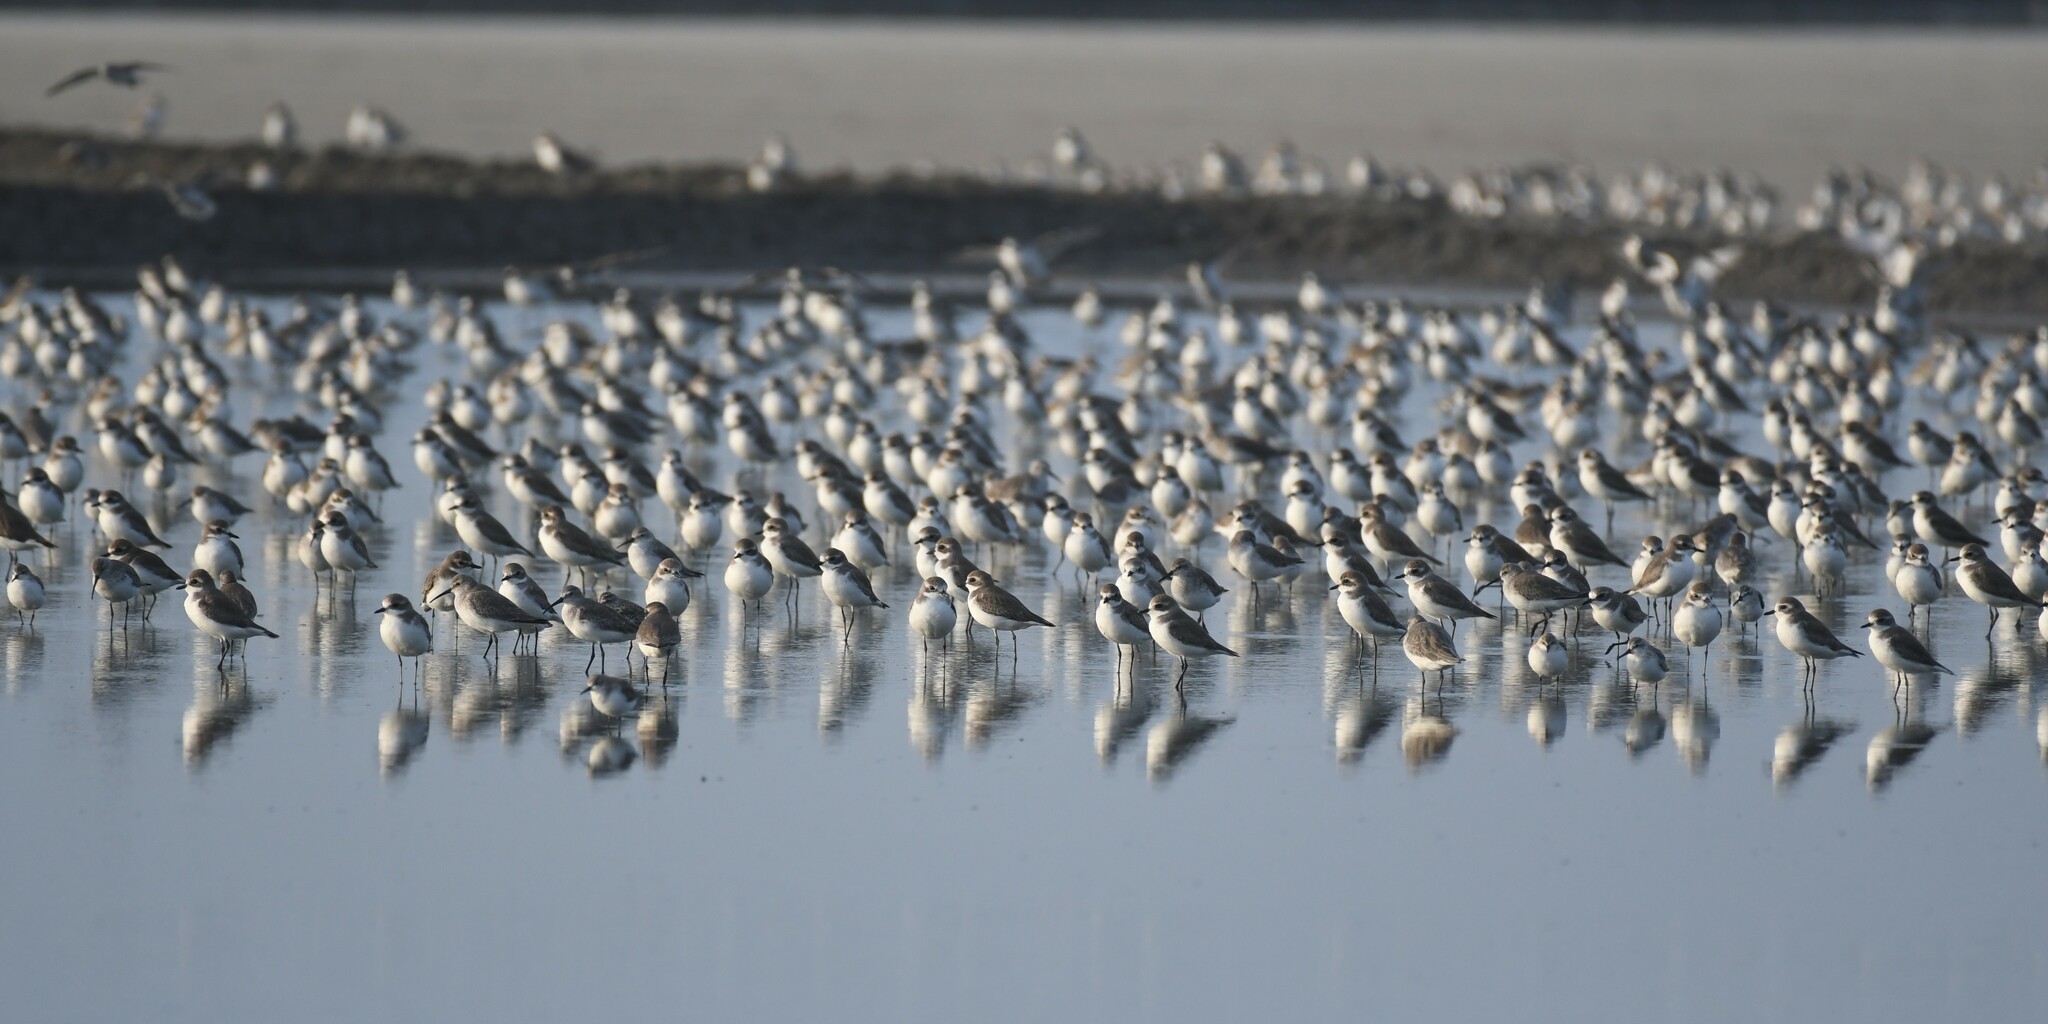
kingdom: Animalia
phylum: Chordata
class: Aves
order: Charadriiformes
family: Charadriidae
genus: Anarhynchus
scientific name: Anarhynchus
